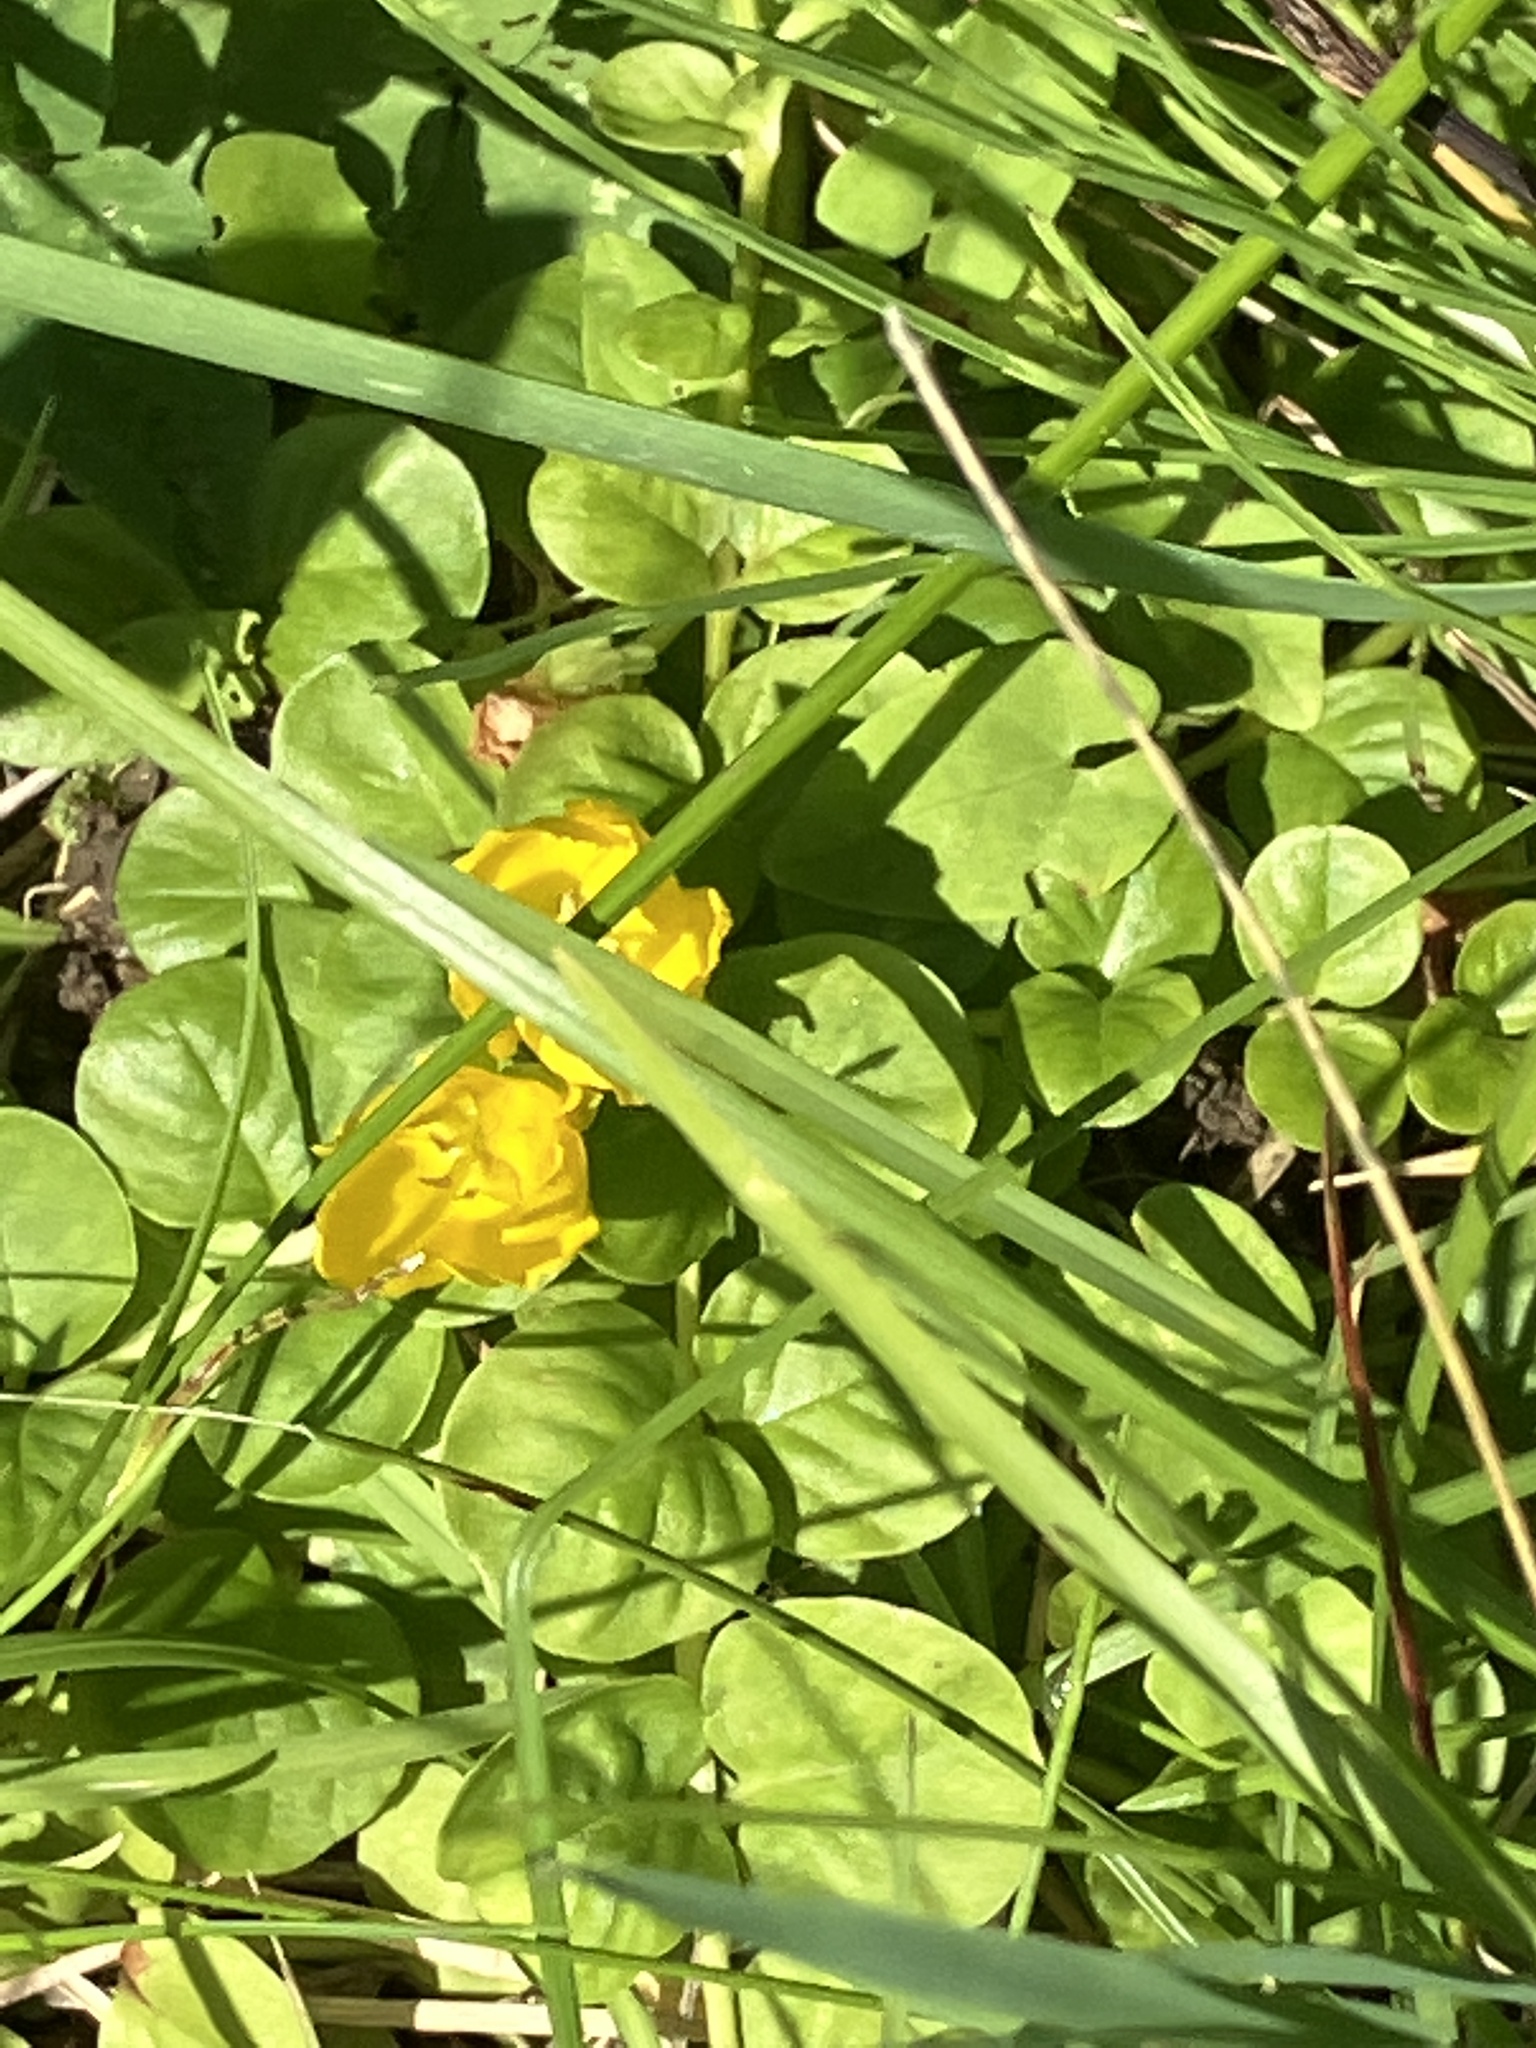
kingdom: Plantae
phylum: Tracheophyta
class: Magnoliopsida
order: Ericales
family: Primulaceae
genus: Lysimachia
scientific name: Lysimachia nummularia
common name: Moneywort
